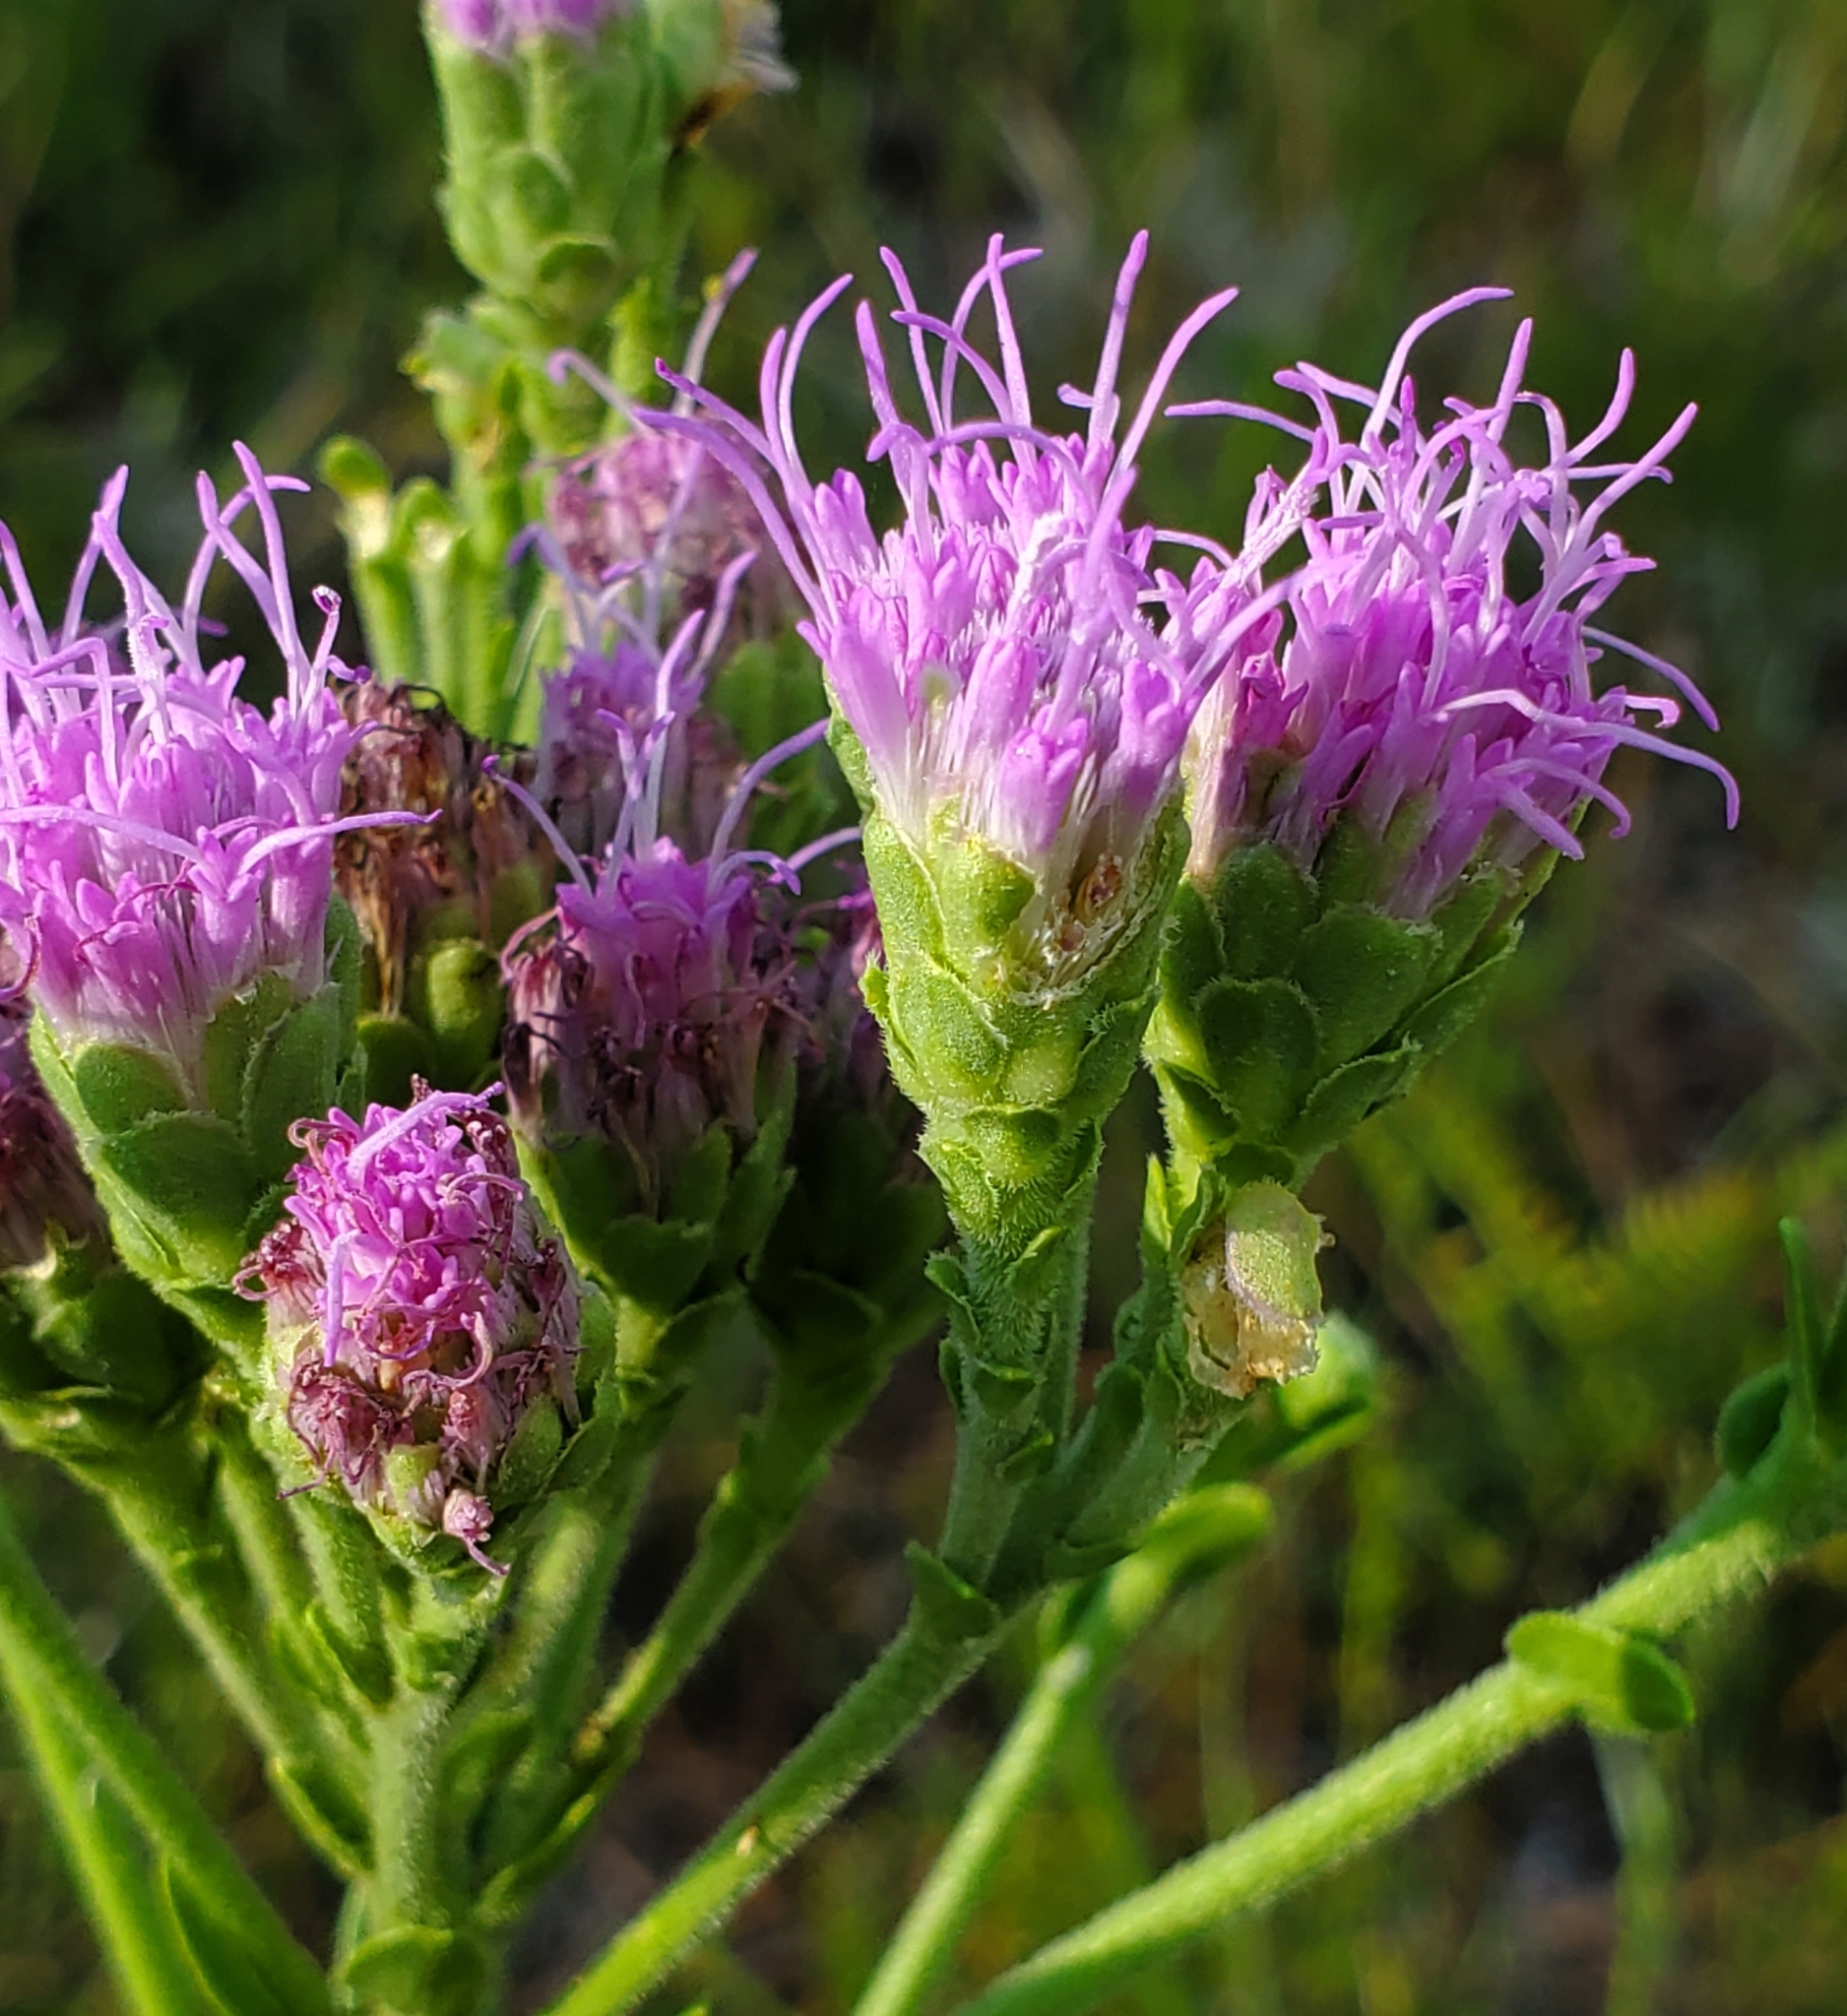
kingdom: Plantae
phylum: Tracheophyta
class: Magnoliopsida
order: Asterales
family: Asteraceae
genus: Carphephorus
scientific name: Carphephorus corymbosus
